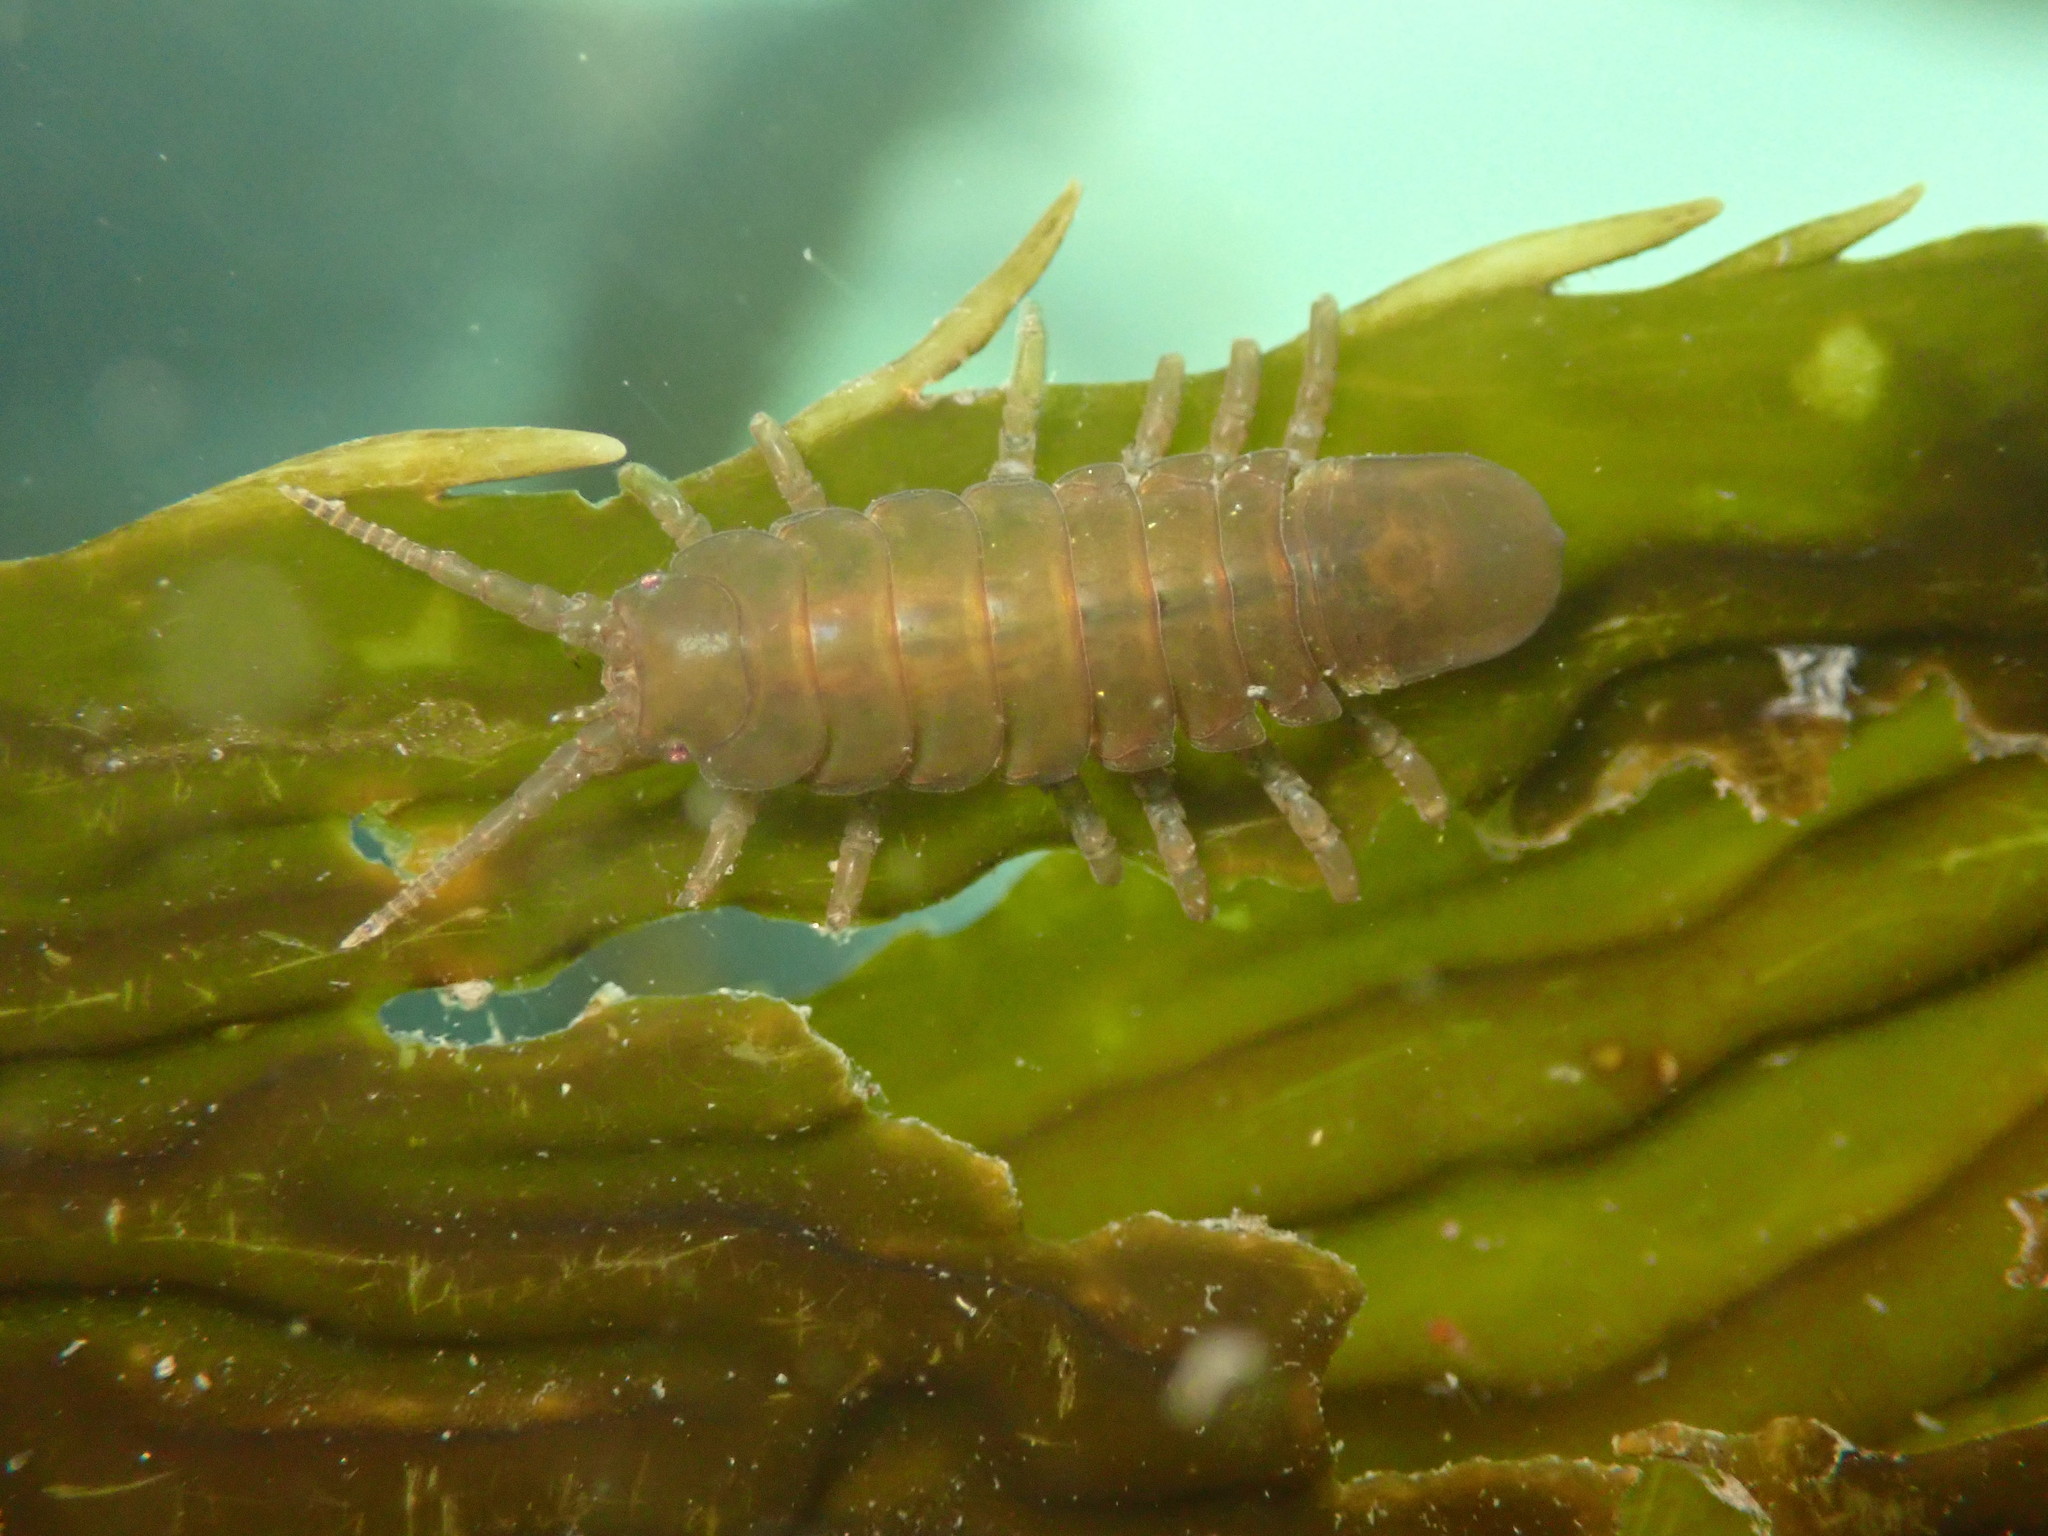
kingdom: Animalia
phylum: Arthropoda
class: Malacostraca
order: Isopoda
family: Idoteidae
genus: Pentidotea
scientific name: Pentidotea wosnesenskii
